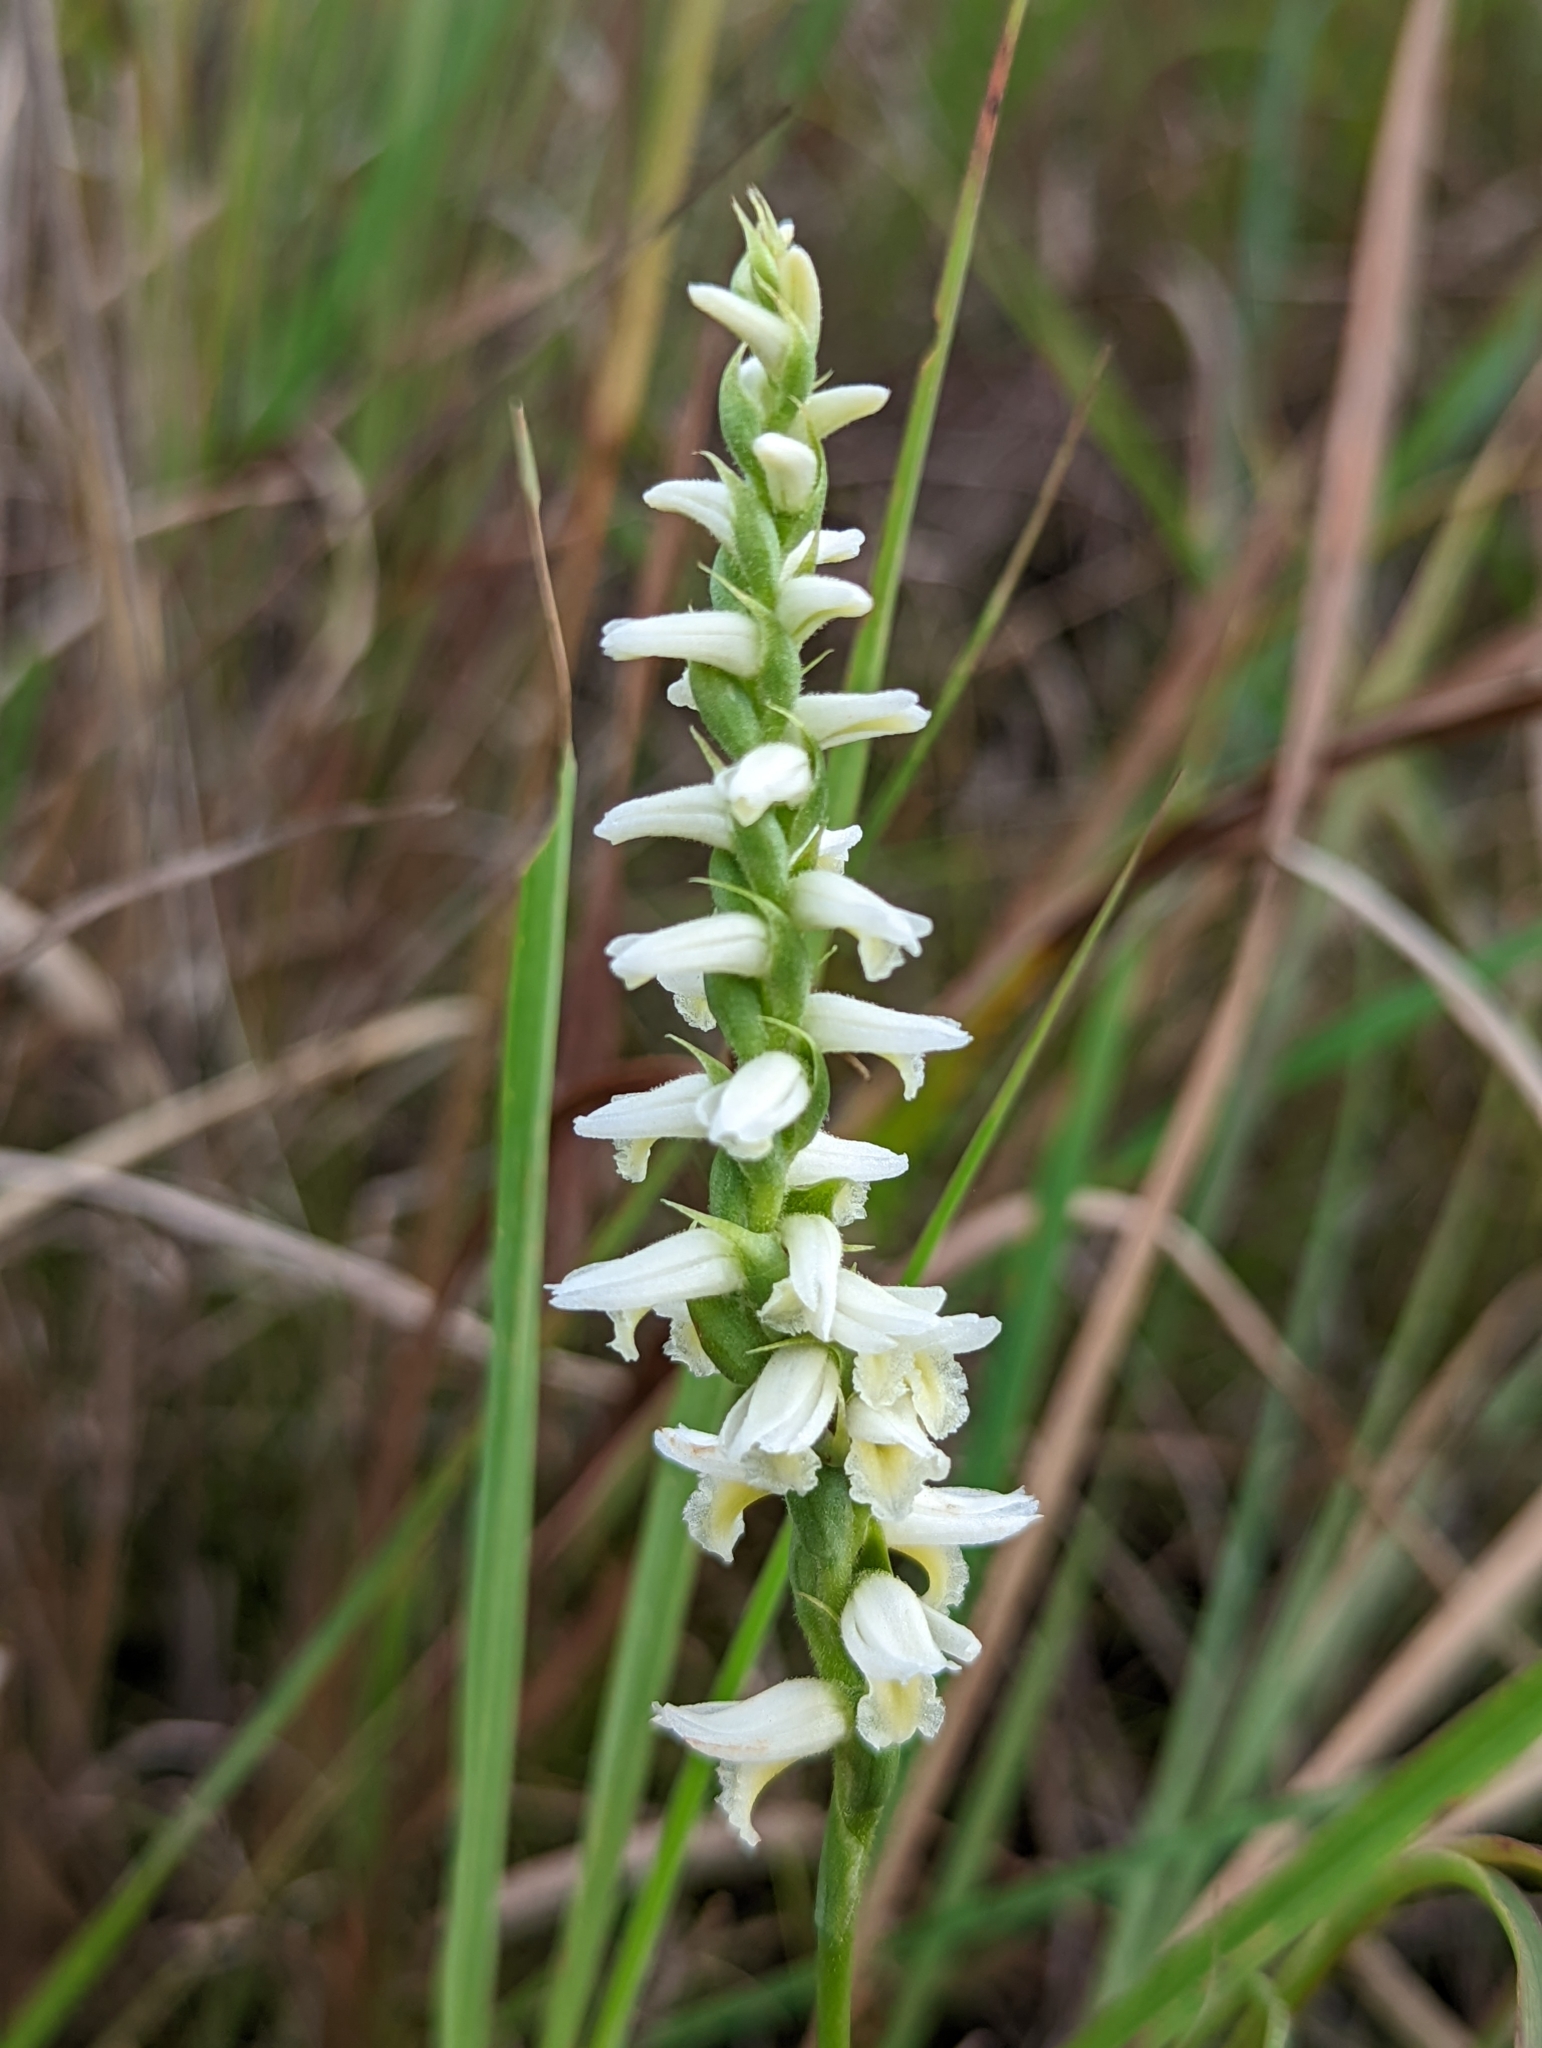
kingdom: Plantae
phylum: Tracheophyta
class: Liliopsida
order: Asparagales
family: Orchidaceae
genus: Spiranthes
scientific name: Spiranthes magnicamporum
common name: Great plains ladies'-tresses
